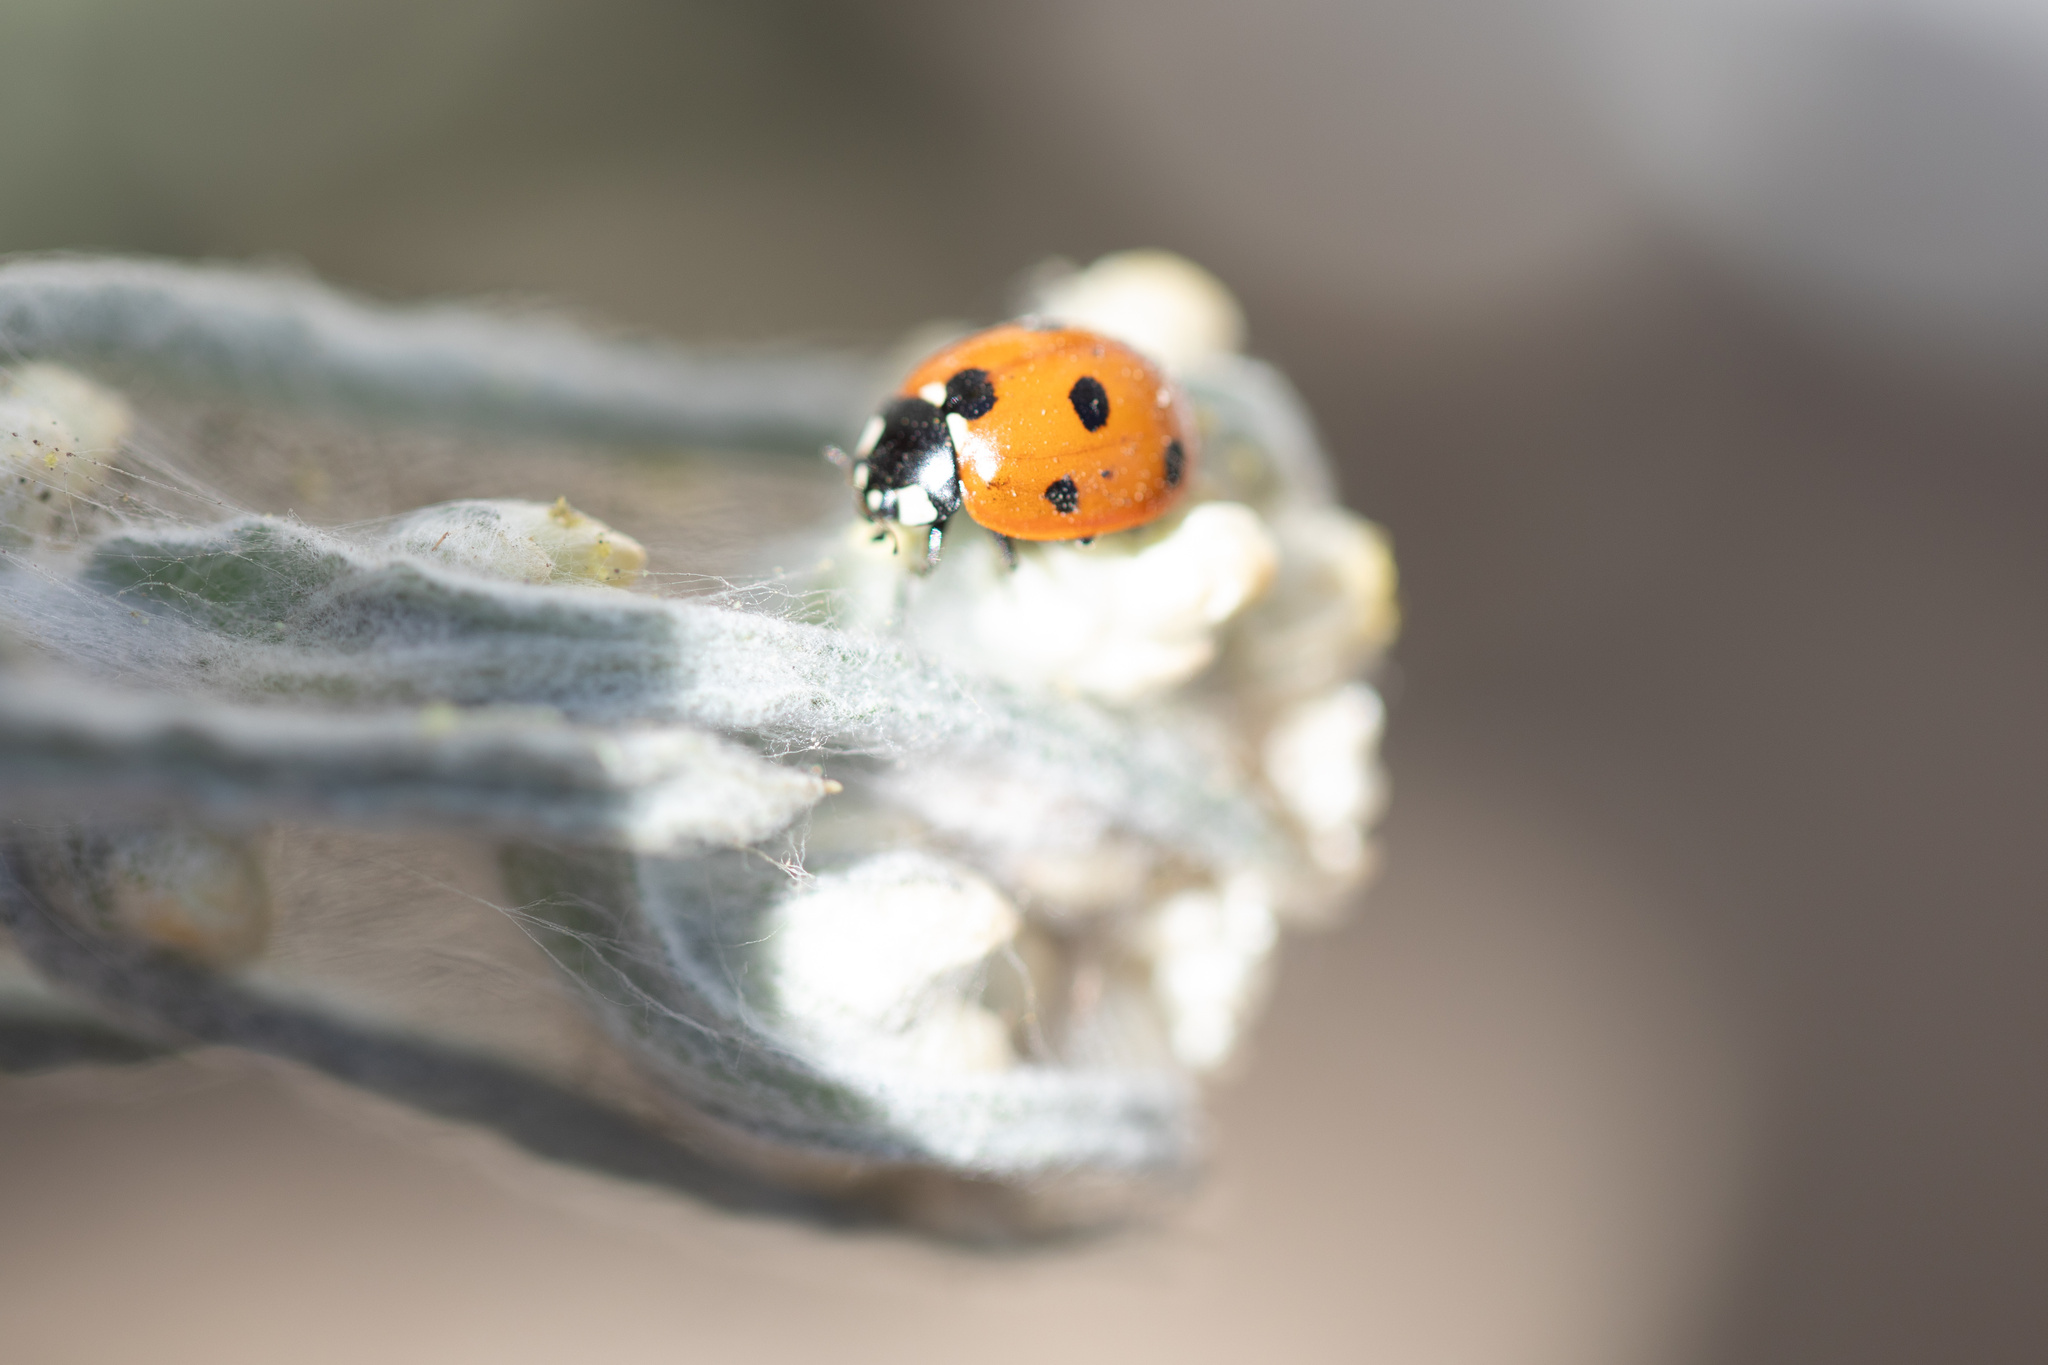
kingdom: Animalia
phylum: Arthropoda
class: Insecta
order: Coleoptera
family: Coccinellidae
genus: Coccinella
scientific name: Coccinella septempunctata
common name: Sevenspotted lady beetle
